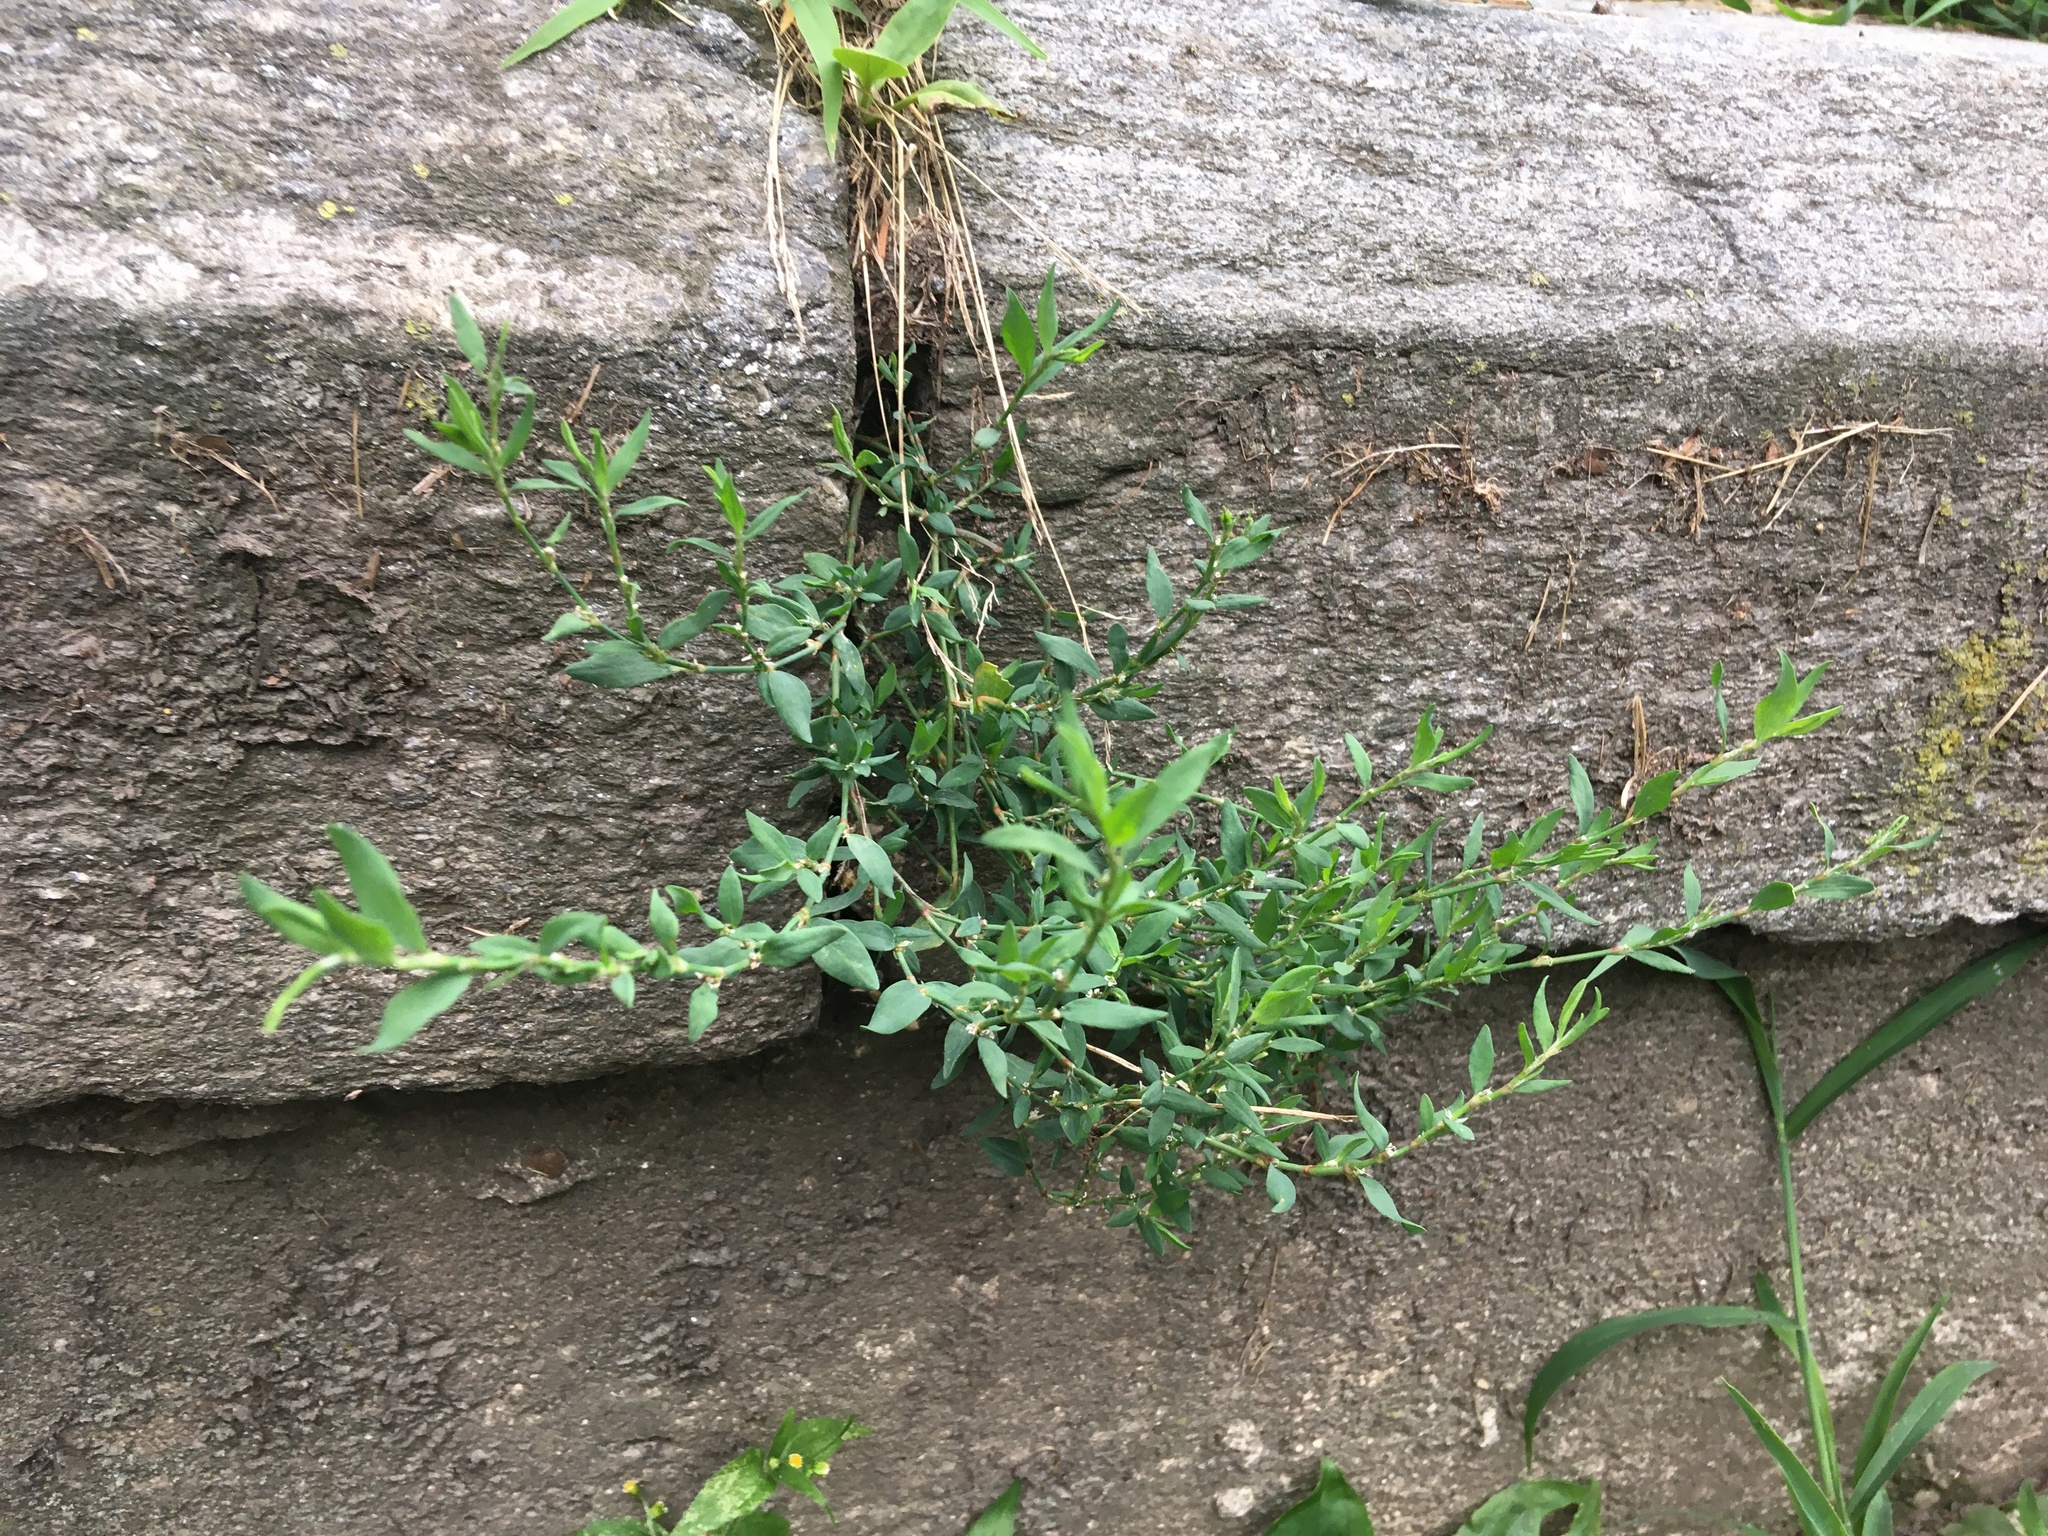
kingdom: Plantae
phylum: Tracheophyta
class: Magnoliopsida
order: Caryophyllales
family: Polygonaceae
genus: Polygonum
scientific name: Polygonum aviculare
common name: Prostrate knotweed
